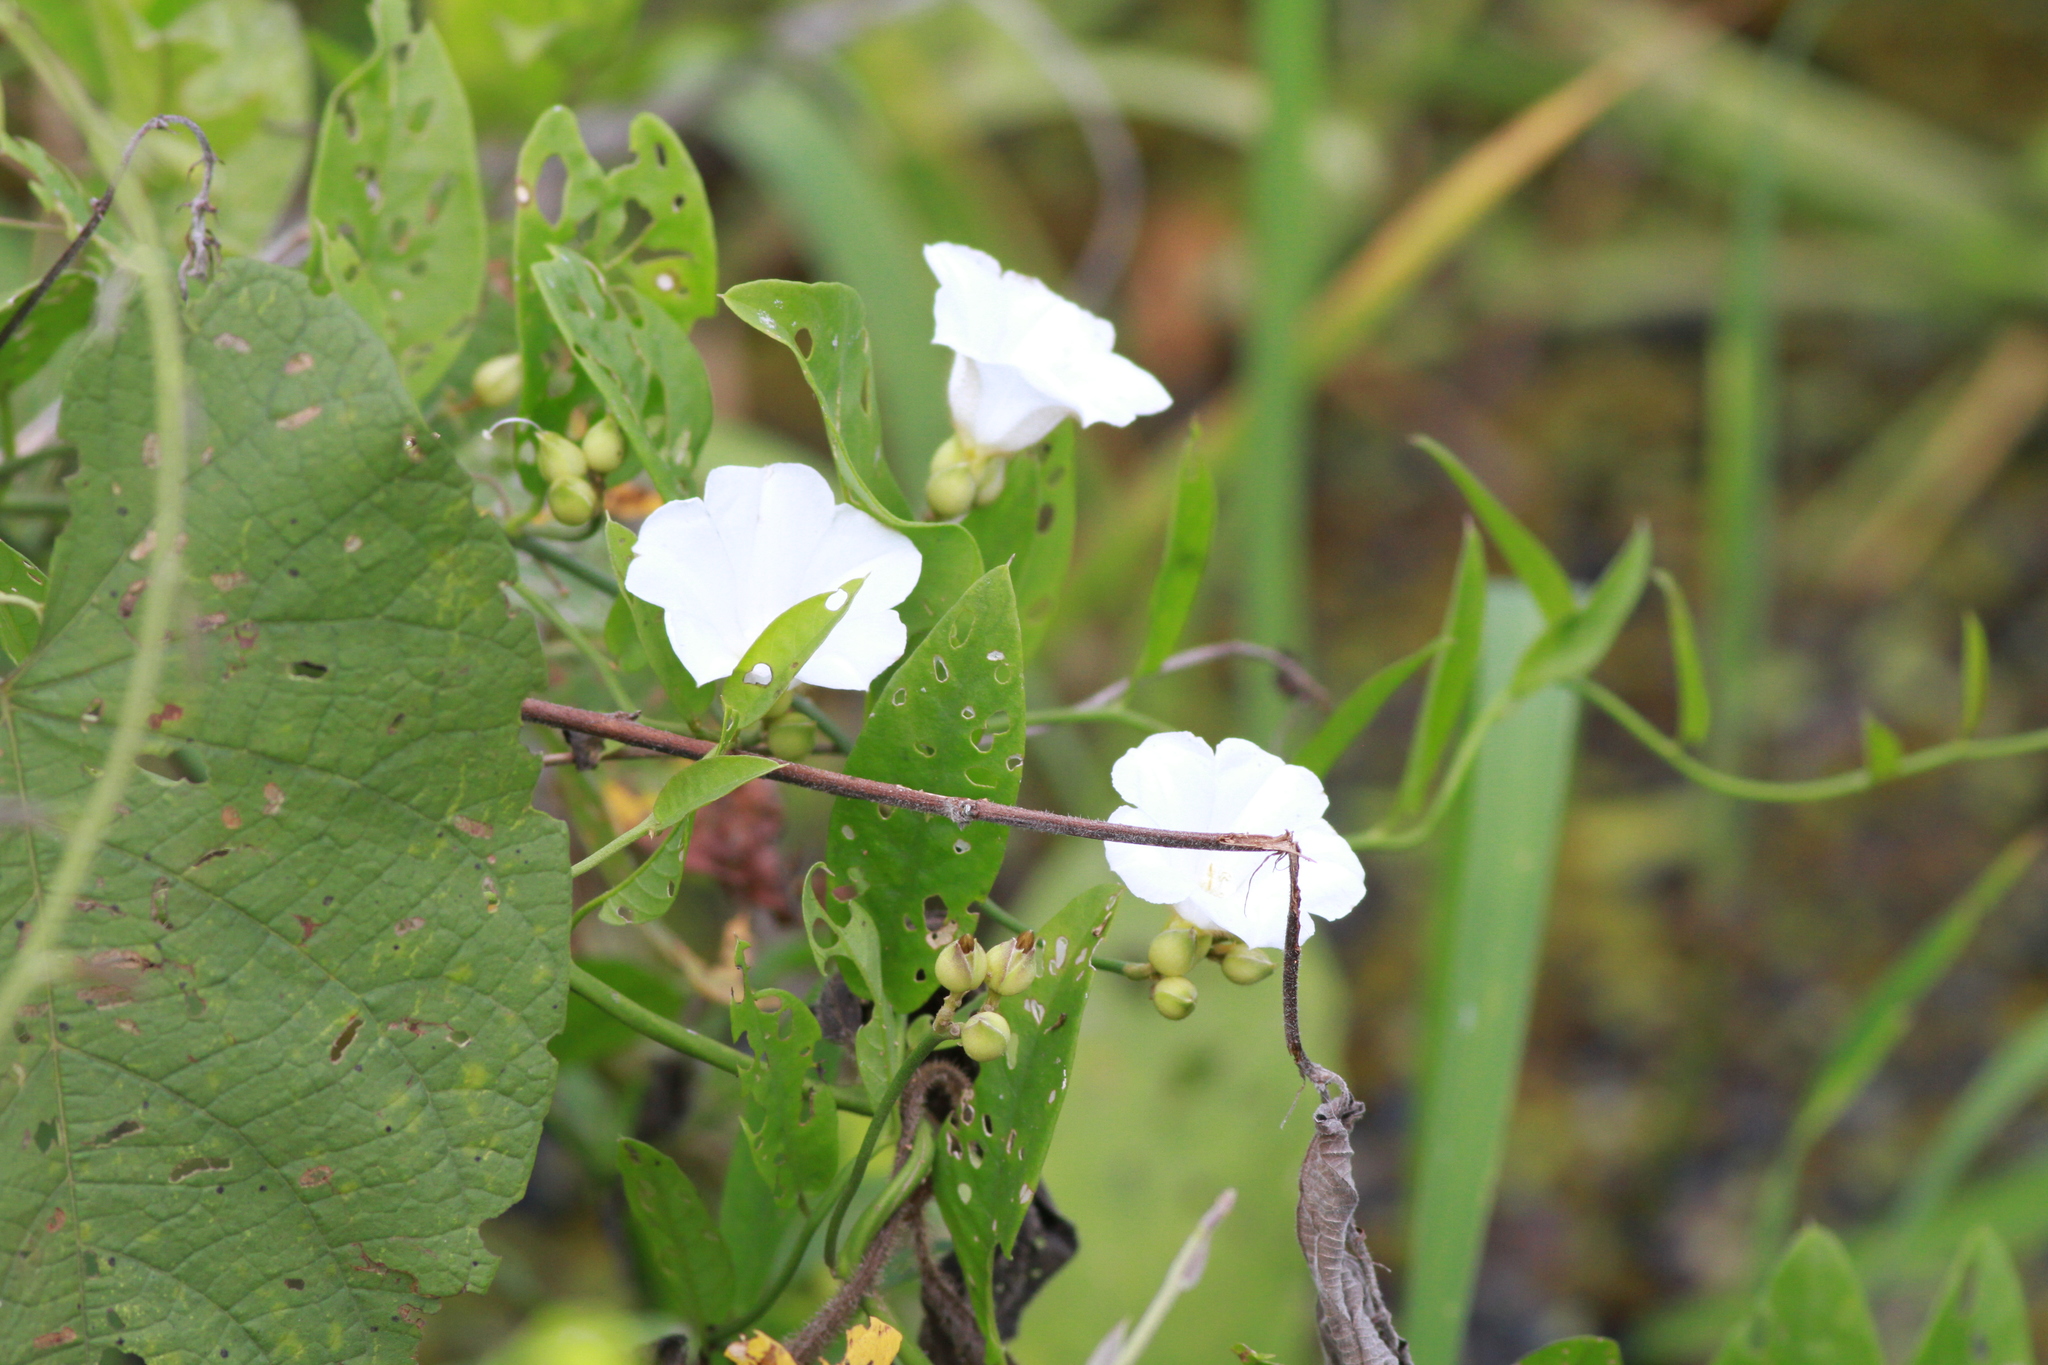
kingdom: Plantae
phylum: Tracheophyta
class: Magnoliopsida
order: Solanales
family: Convolvulaceae
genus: Aniseia
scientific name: Aniseia luxurians
